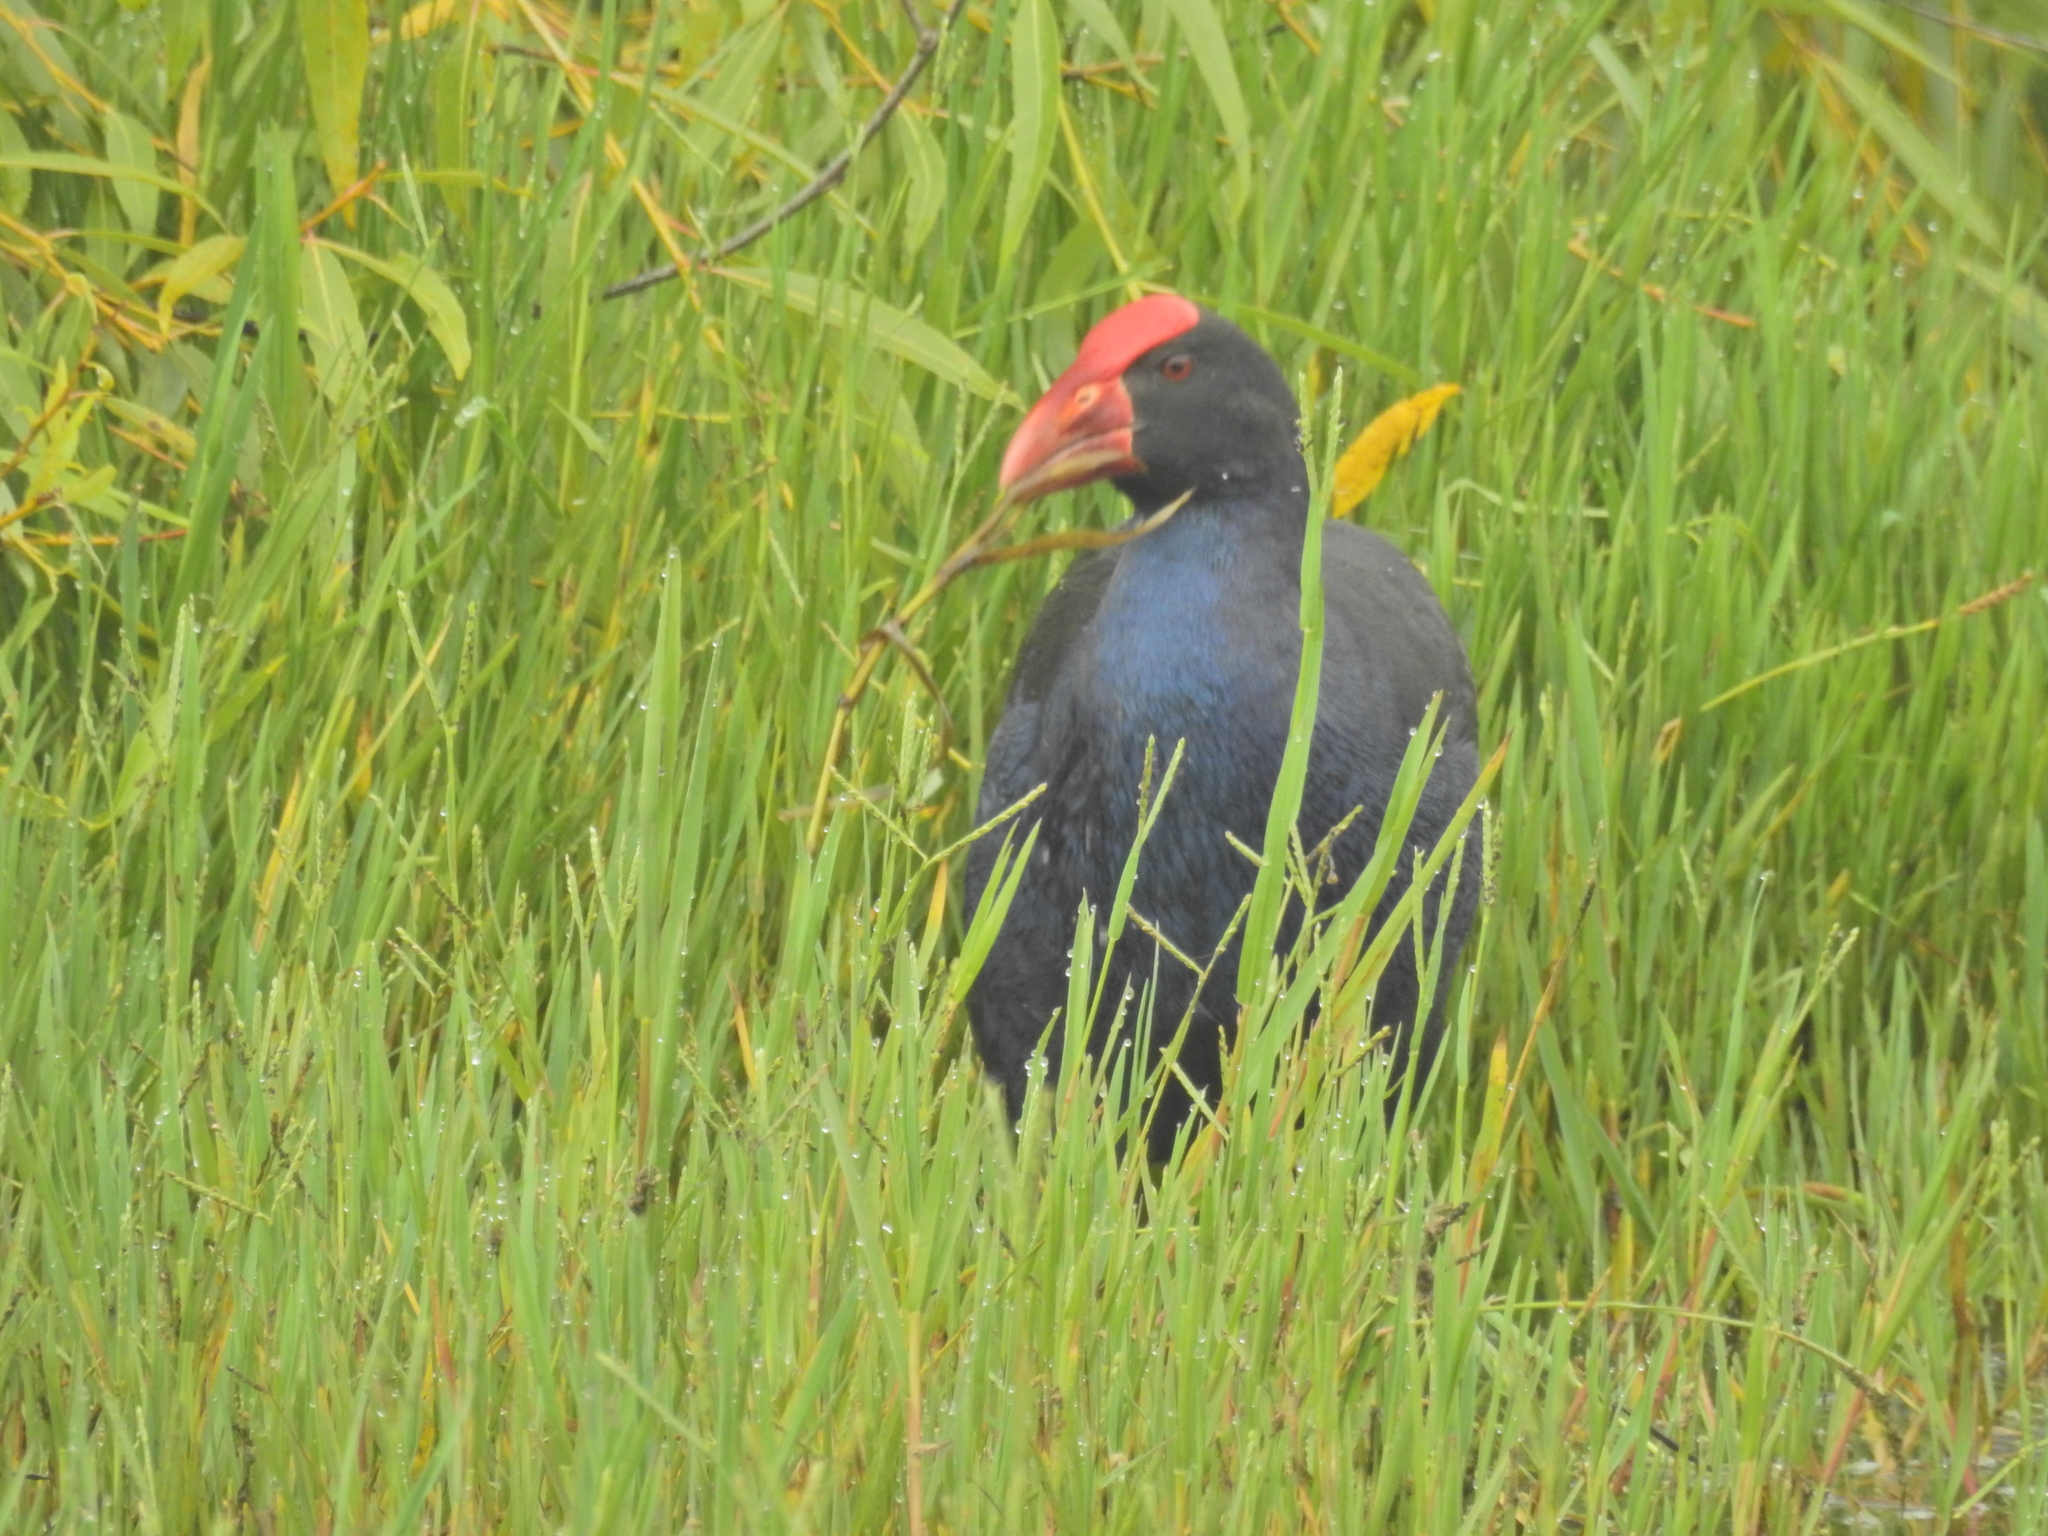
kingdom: Animalia
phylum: Chordata
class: Aves
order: Gruiformes
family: Rallidae
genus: Porphyrio
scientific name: Porphyrio melanotus
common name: Australasian swamphen
